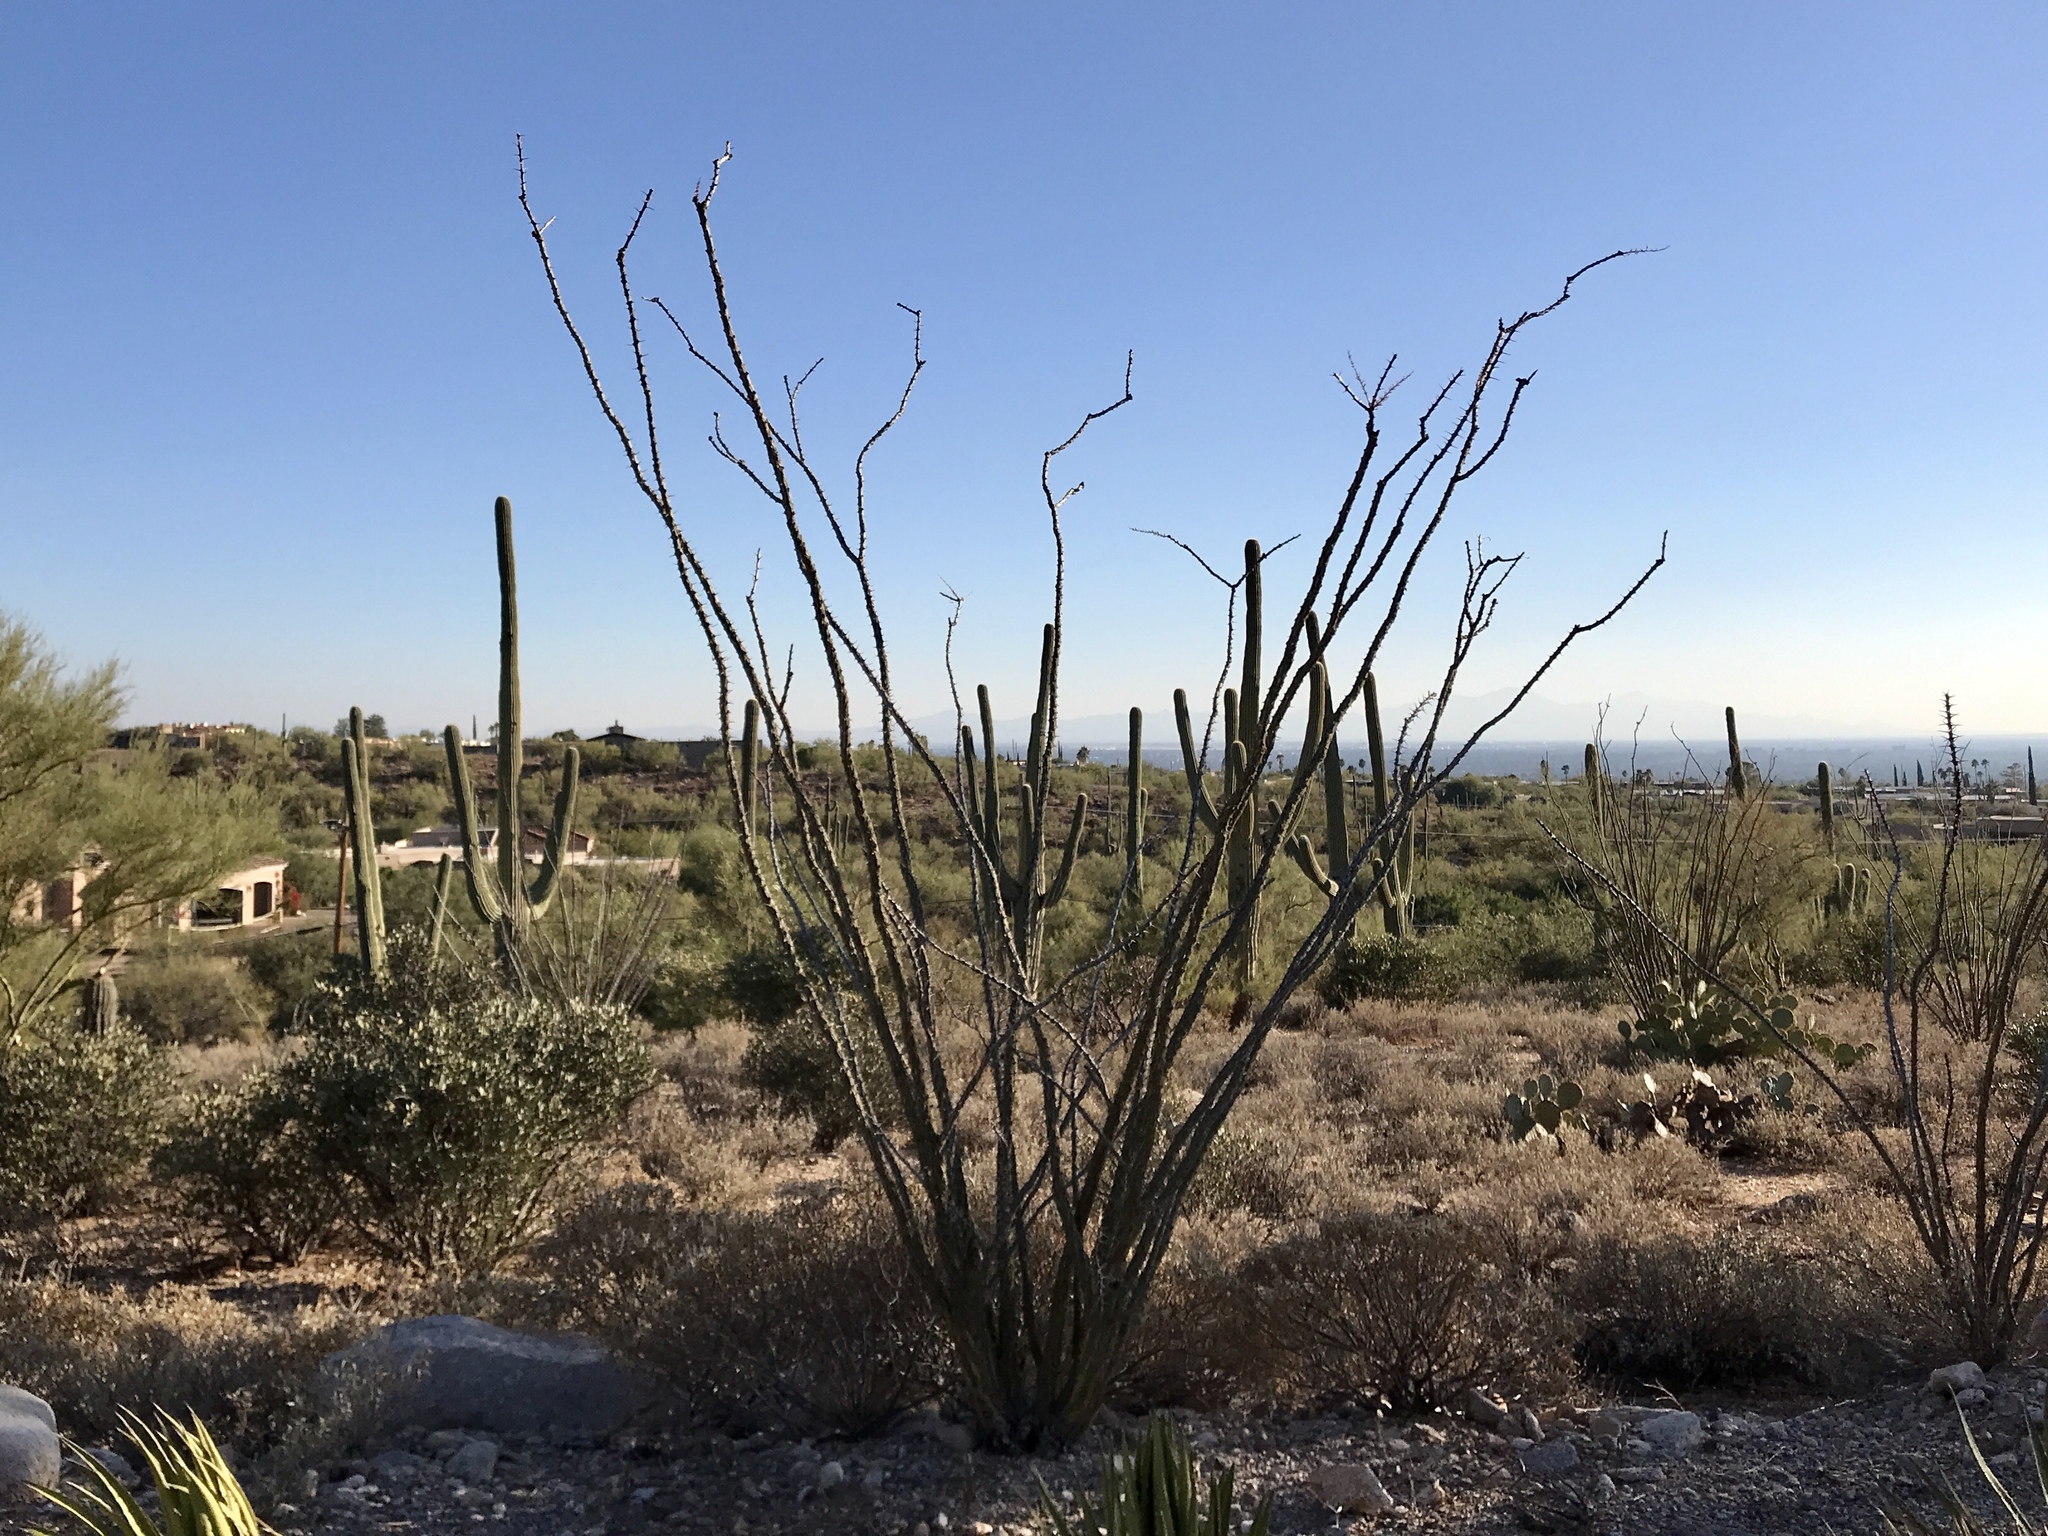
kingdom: Plantae
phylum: Tracheophyta
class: Magnoliopsida
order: Ericales
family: Fouquieriaceae
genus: Fouquieria
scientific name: Fouquieria splendens
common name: Vine-cactus
